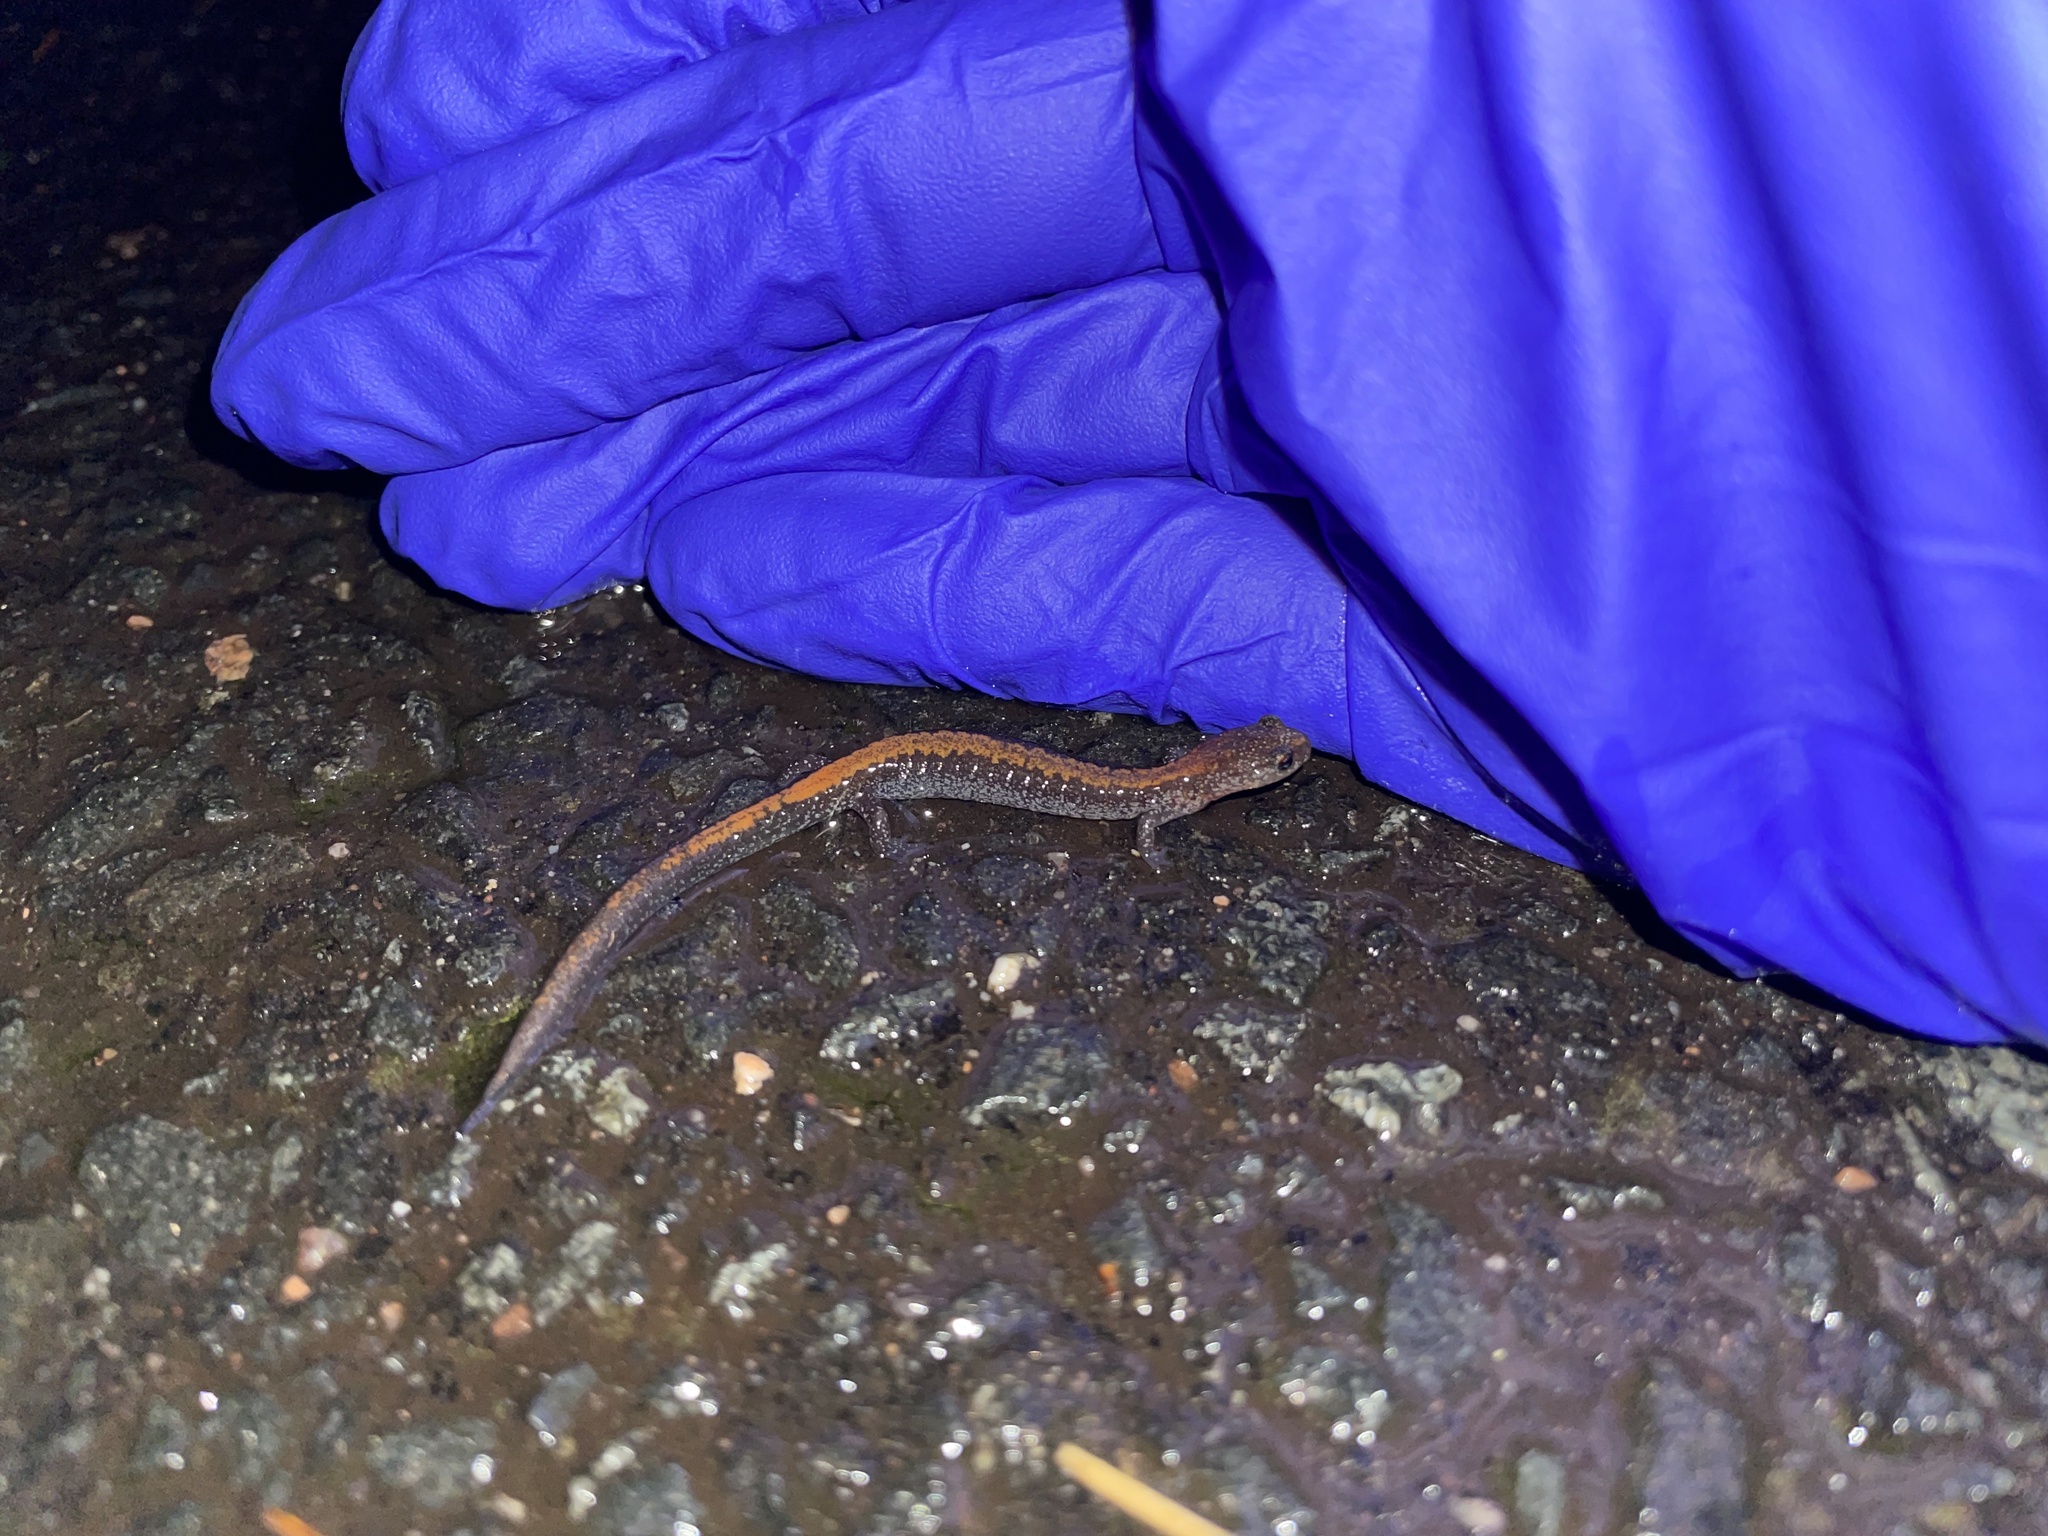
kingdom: Animalia
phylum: Chordata
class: Amphibia
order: Caudata
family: Plethodontidae
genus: Plethodon
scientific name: Plethodon cinereus
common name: Redback salamander
